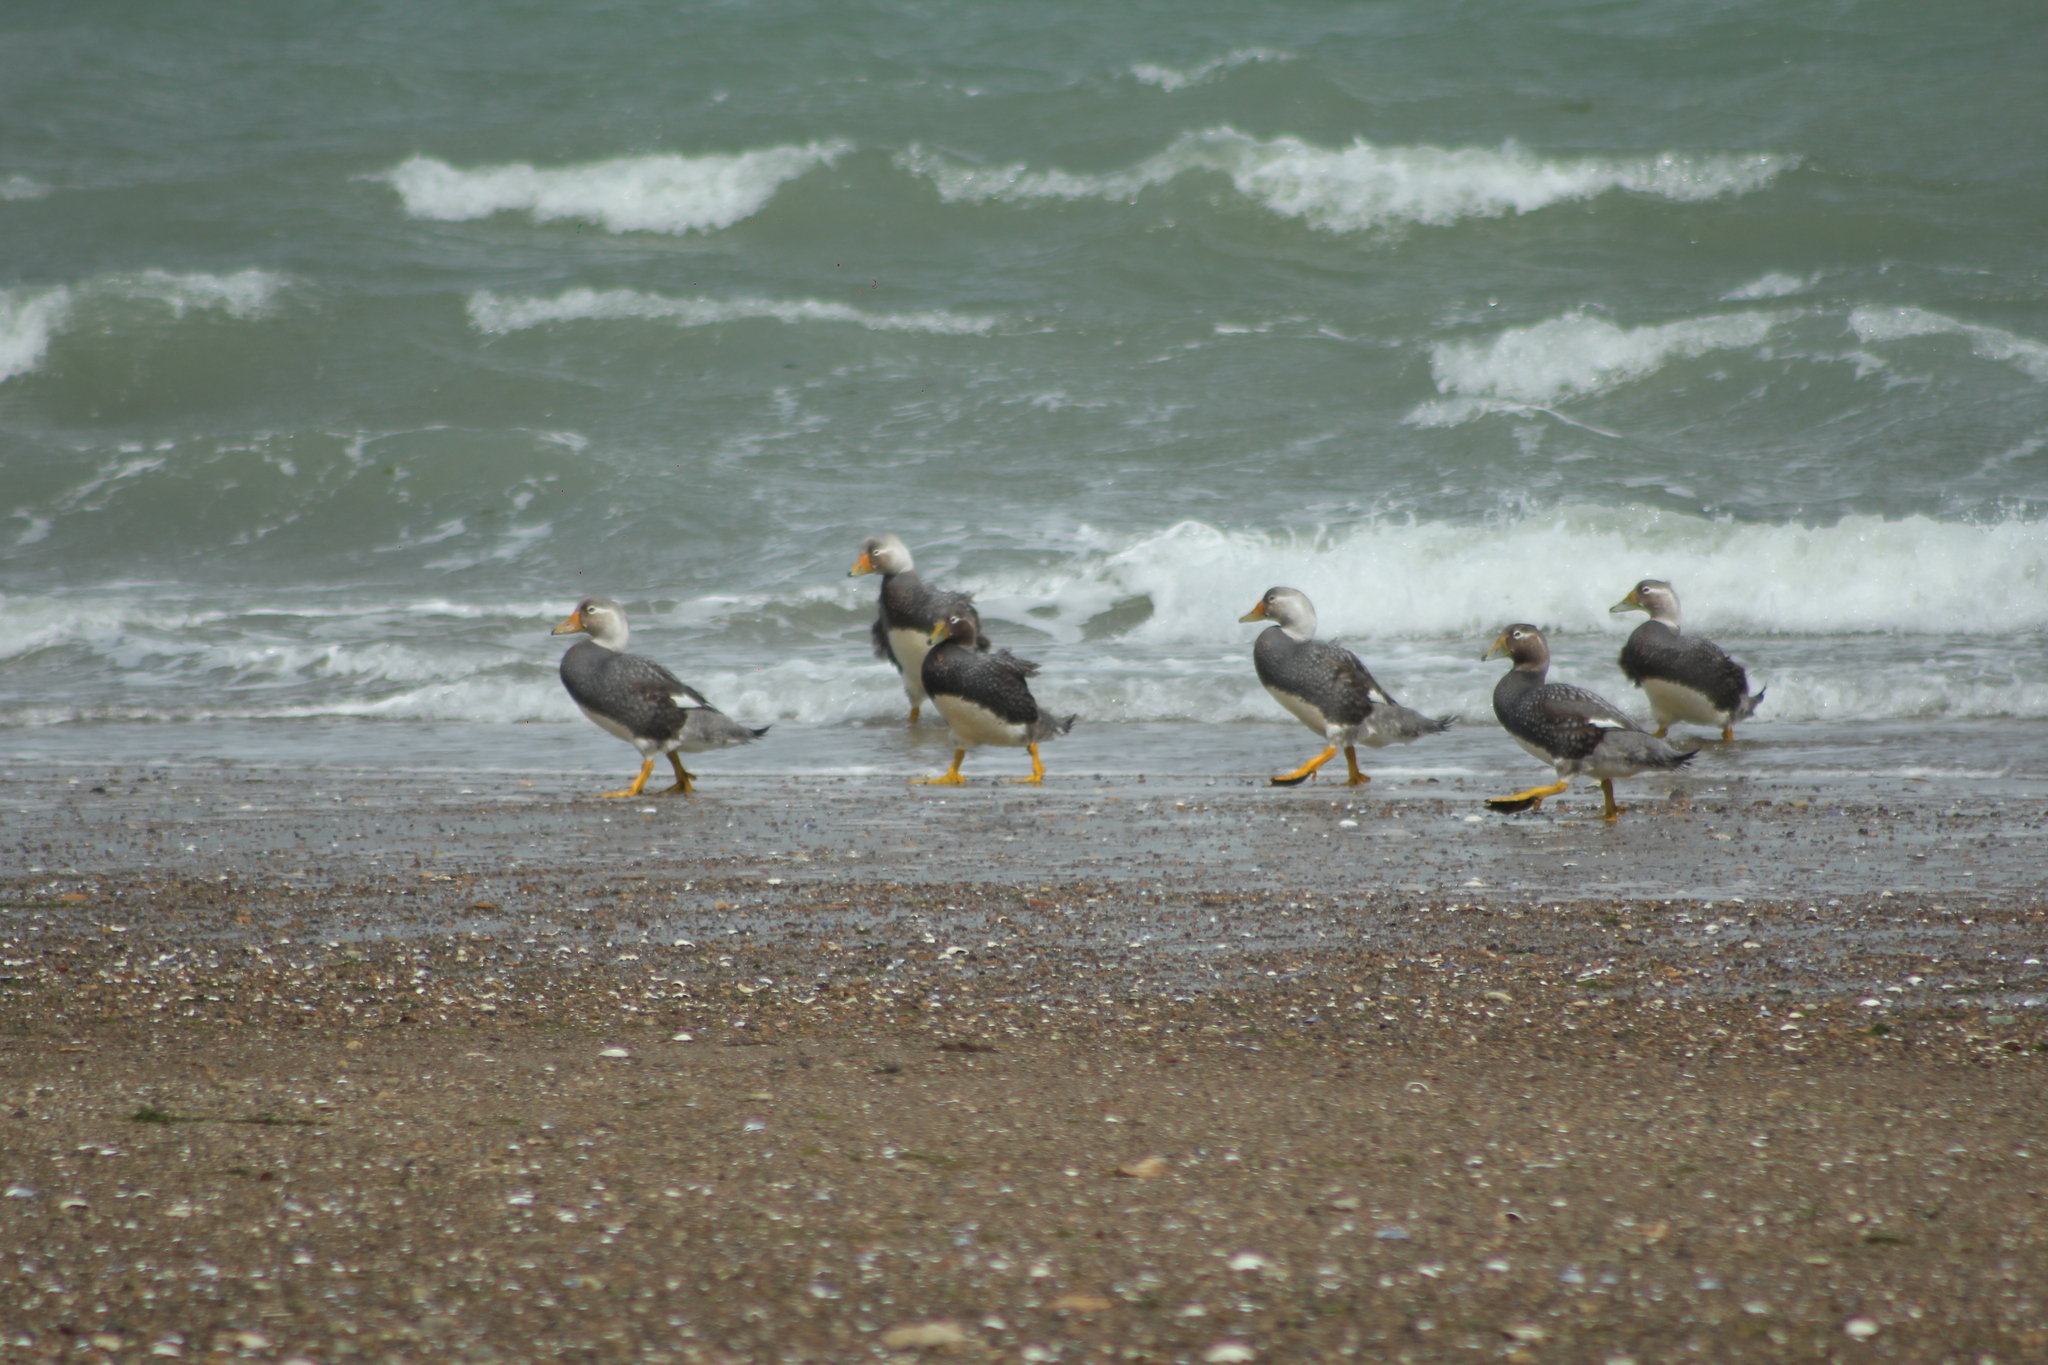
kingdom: Animalia
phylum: Chordata
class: Aves
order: Anseriformes
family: Anatidae
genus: Tachyeres
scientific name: Tachyeres leucocephalus
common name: Chubut steamer duck
